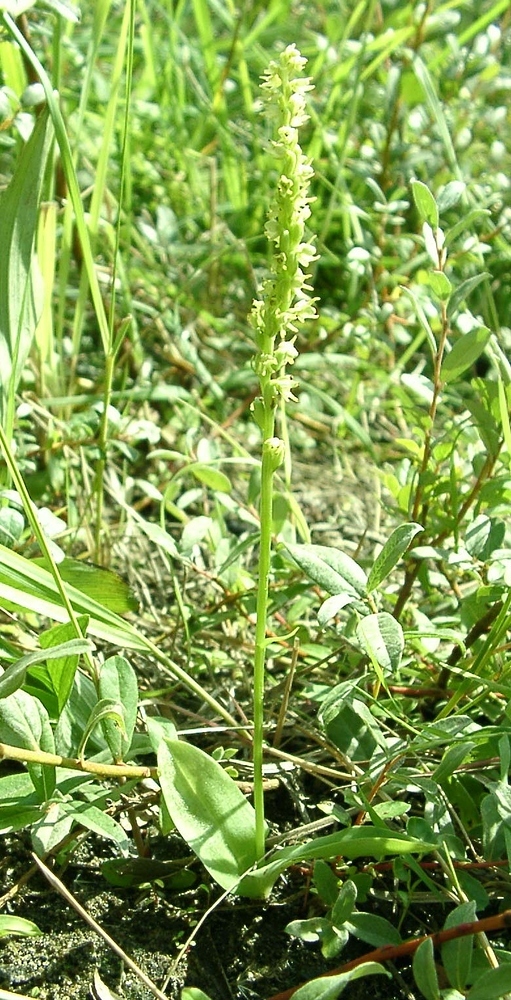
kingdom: Plantae
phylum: Tracheophyta
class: Liliopsida
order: Asparagales
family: Orchidaceae
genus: Herminium
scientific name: Herminium monorchis
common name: Musk orchid
